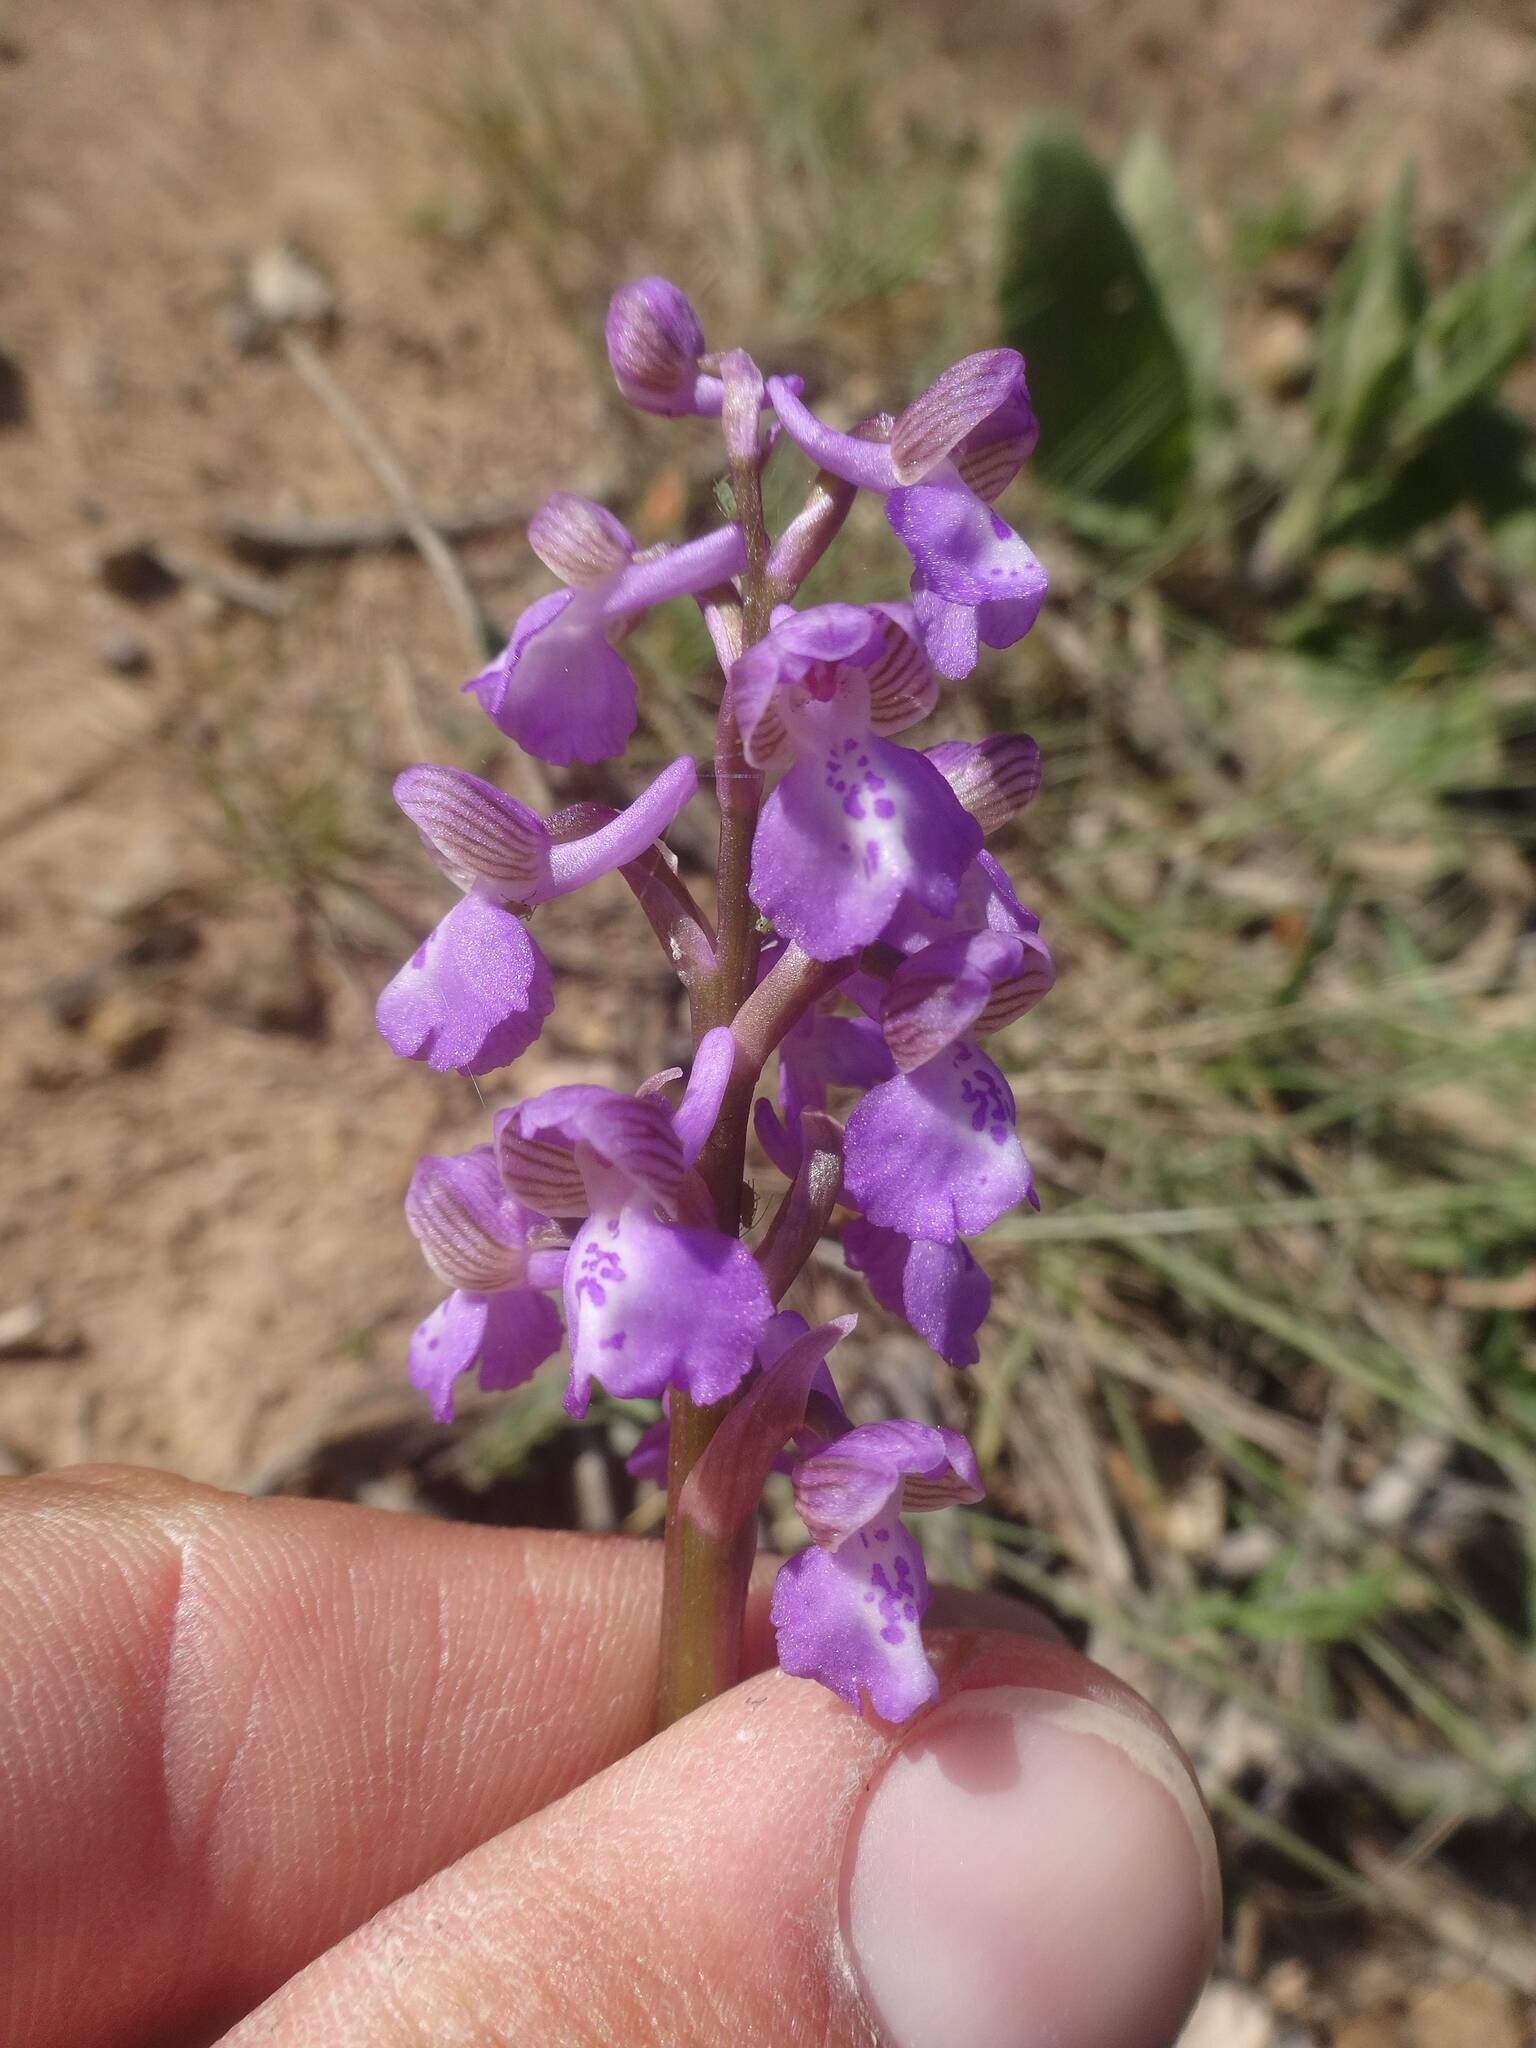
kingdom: Plantae
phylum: Tracheophyta
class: Liliopsida
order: Asparagales
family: Orchidaceae
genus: Anacamptis
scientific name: Anacamptis morio
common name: Green-winged orchid
